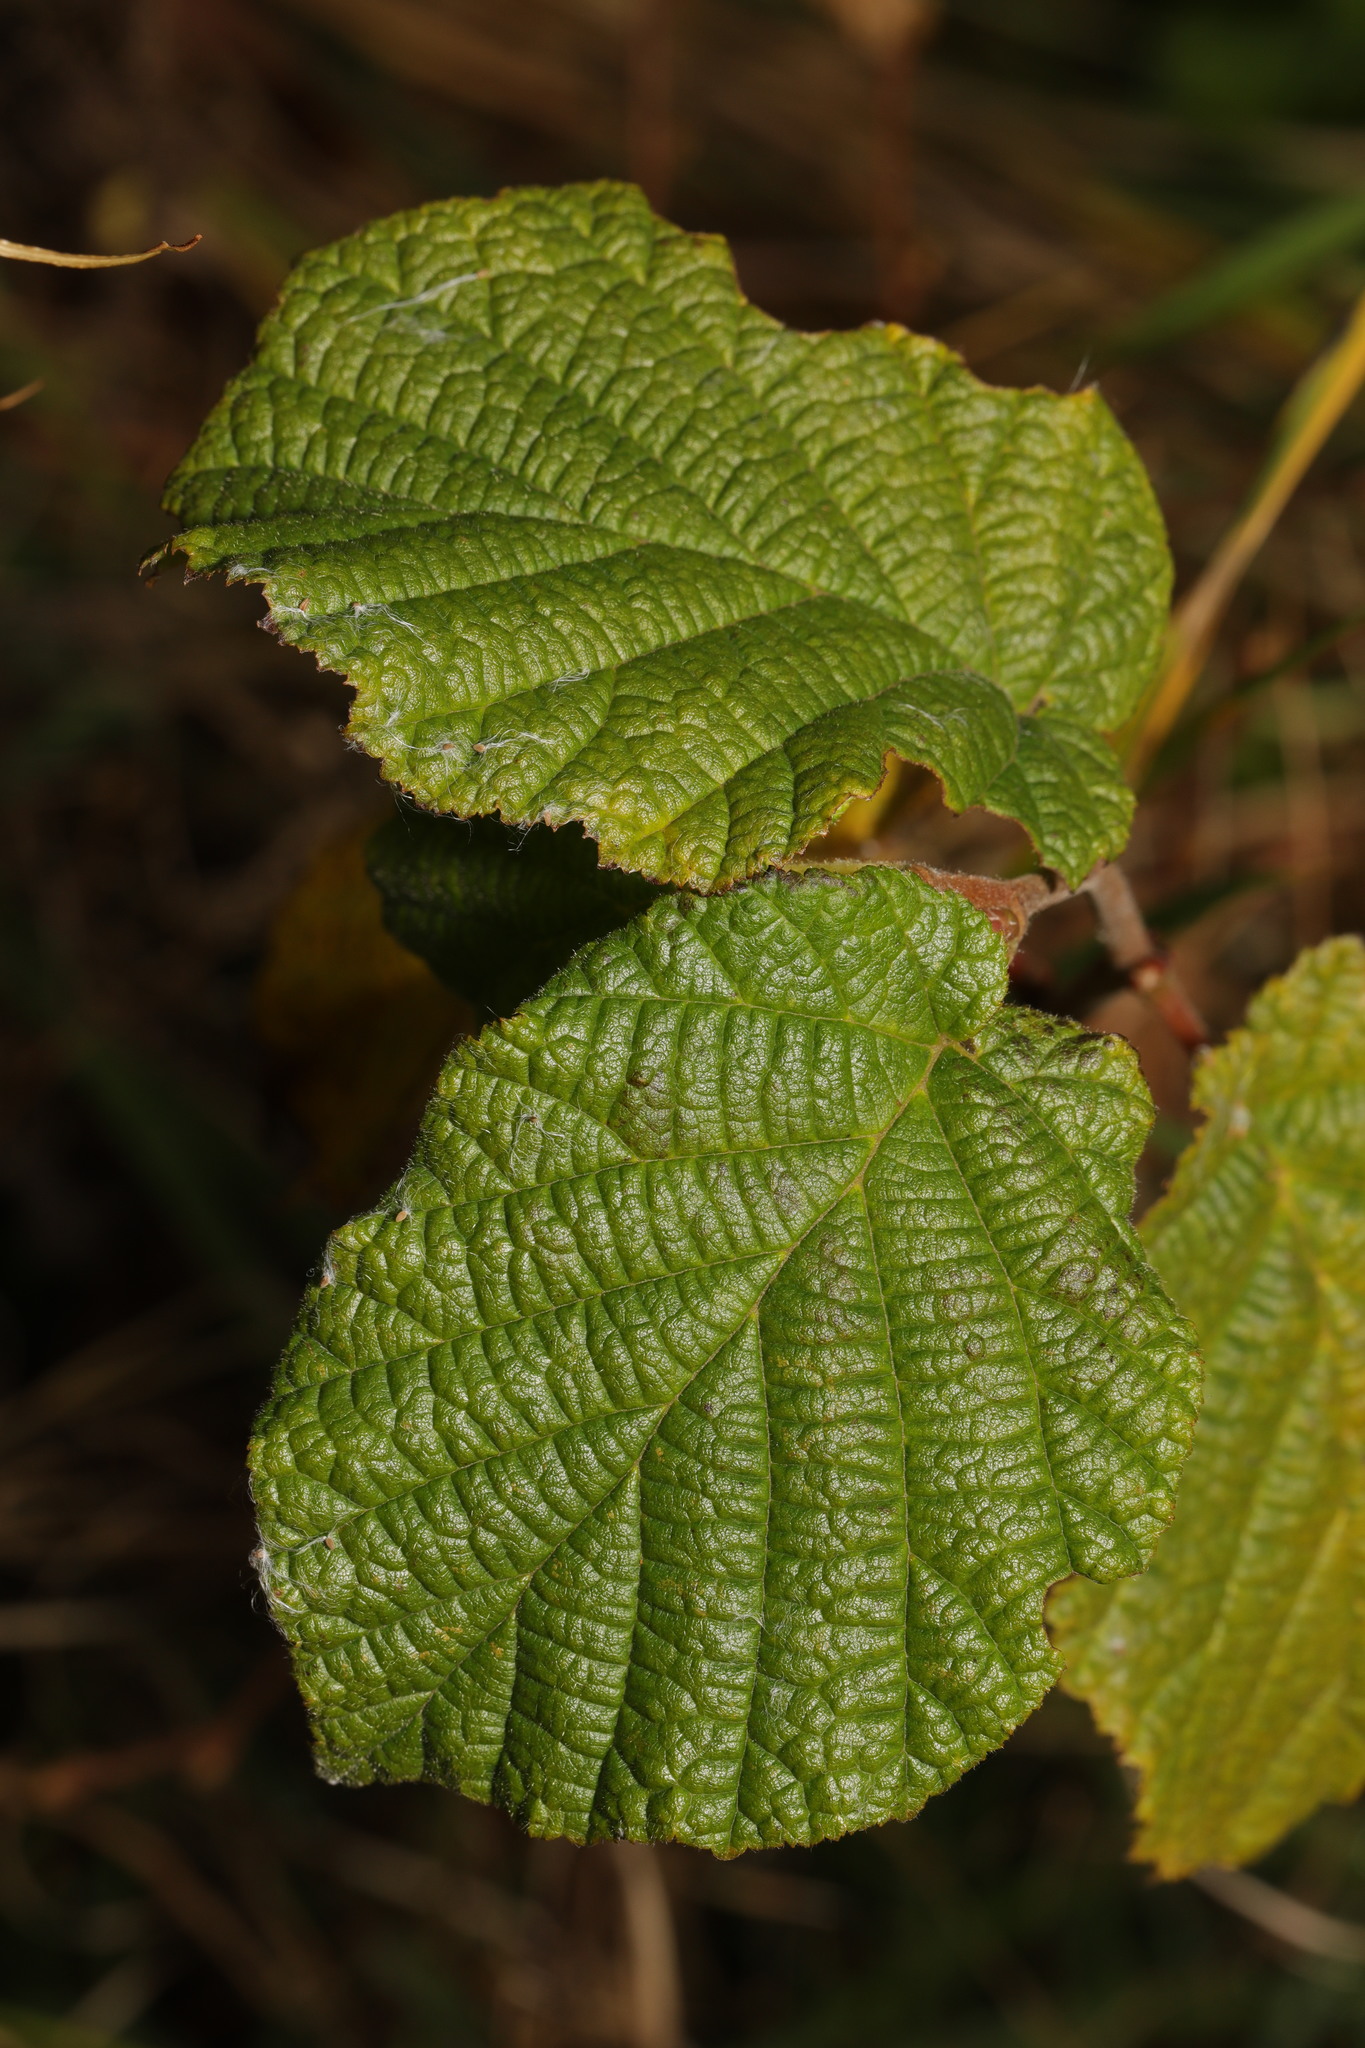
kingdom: Plantae
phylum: Tracheophyta
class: Magnoliopsida
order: Fagales
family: Betulaceae
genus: Corylus
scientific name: Corylus avellana
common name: European hazel
